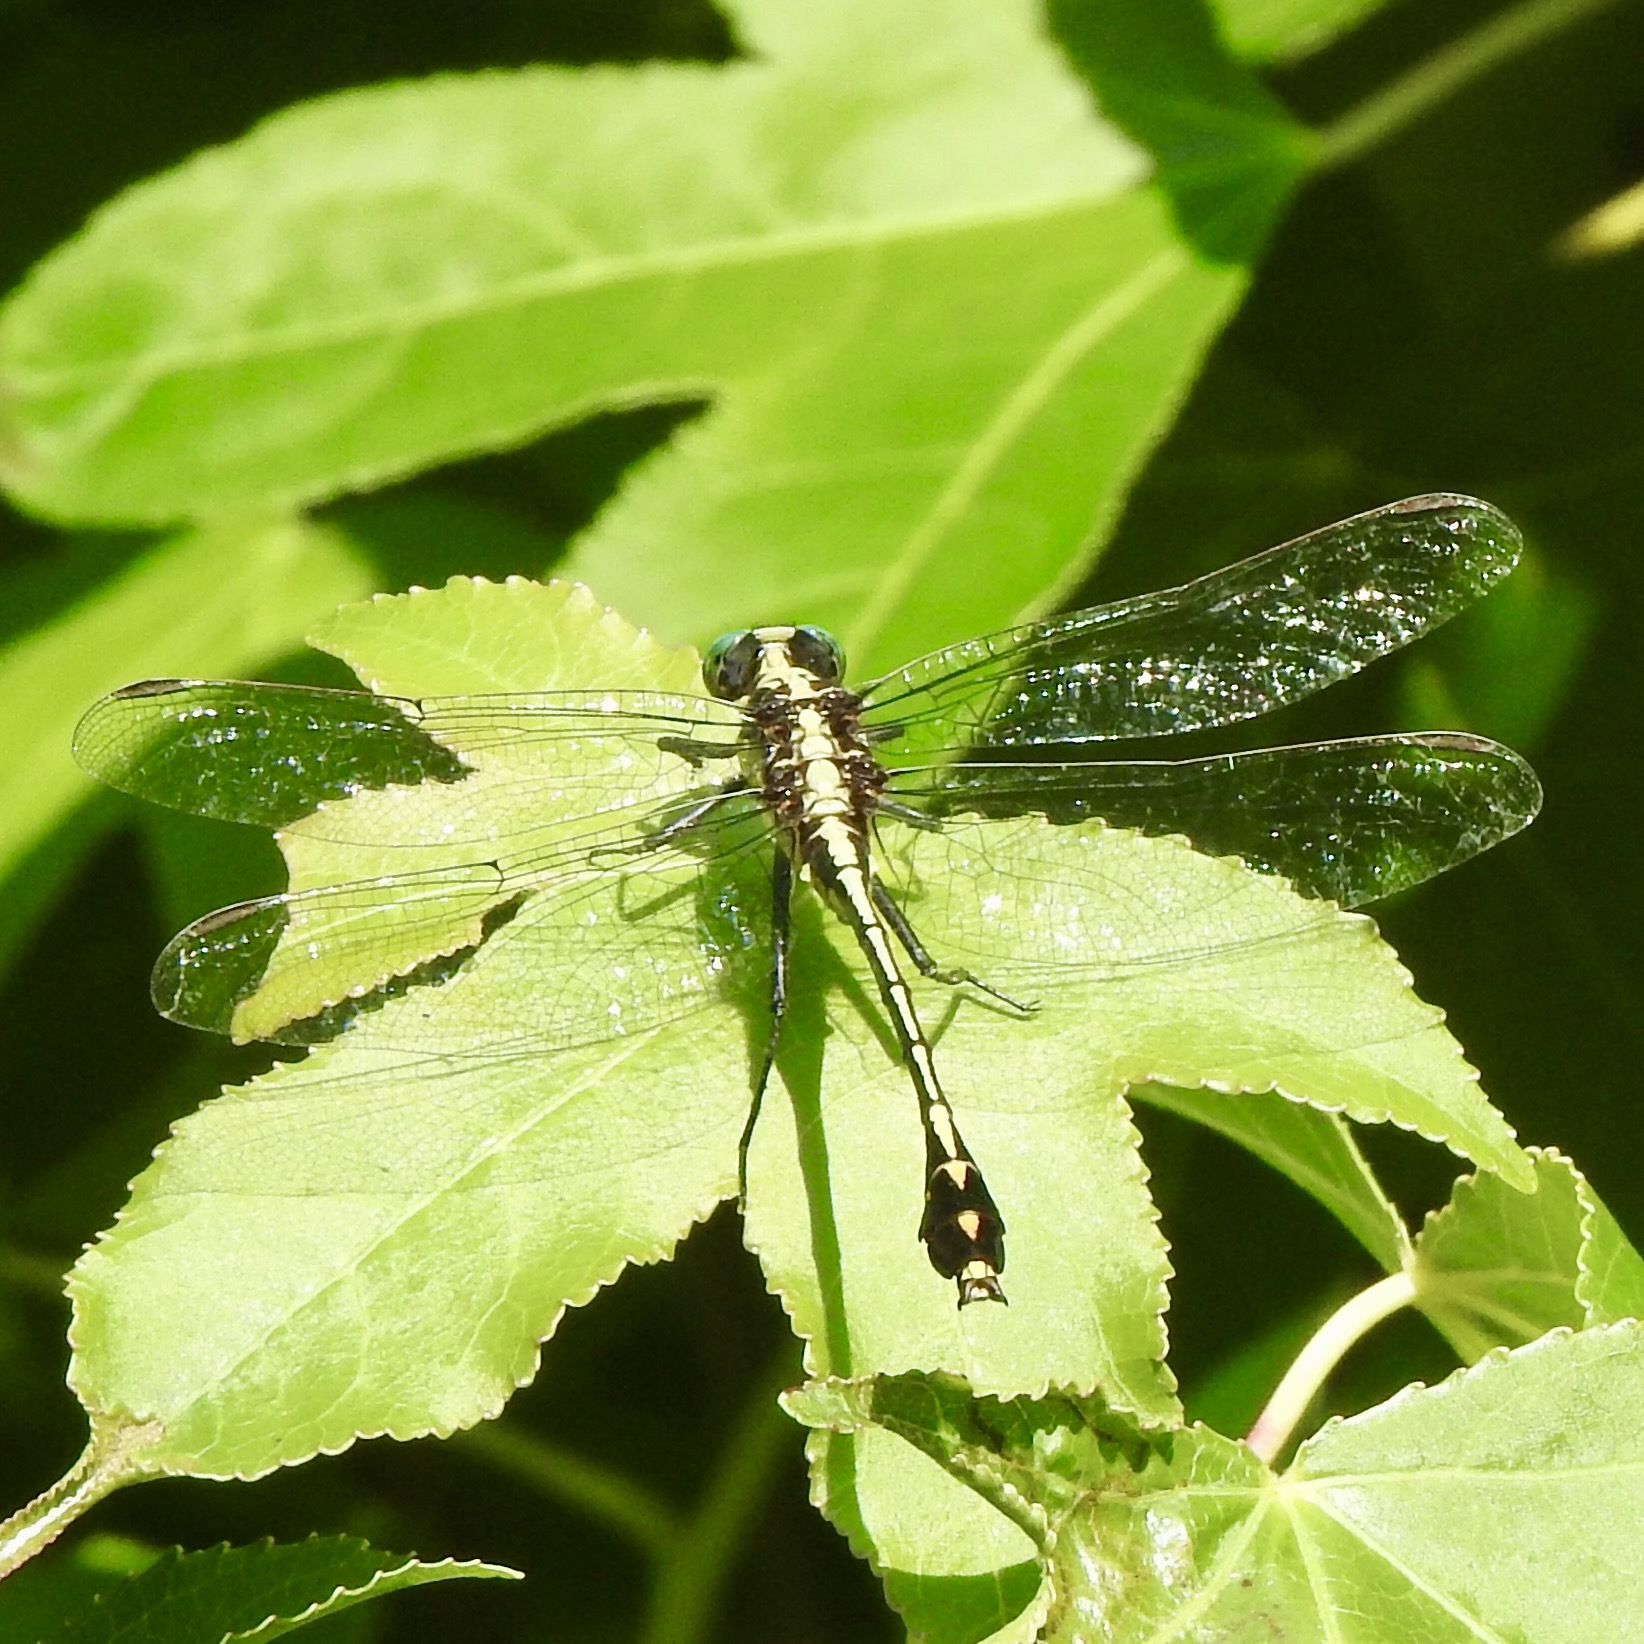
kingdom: Animalia
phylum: Arthropoda
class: Insecta
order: Odonata
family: Gomphidae
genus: Dromogomphus
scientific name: Dromogomphus spinosus
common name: Black-shouldered spinyleg
